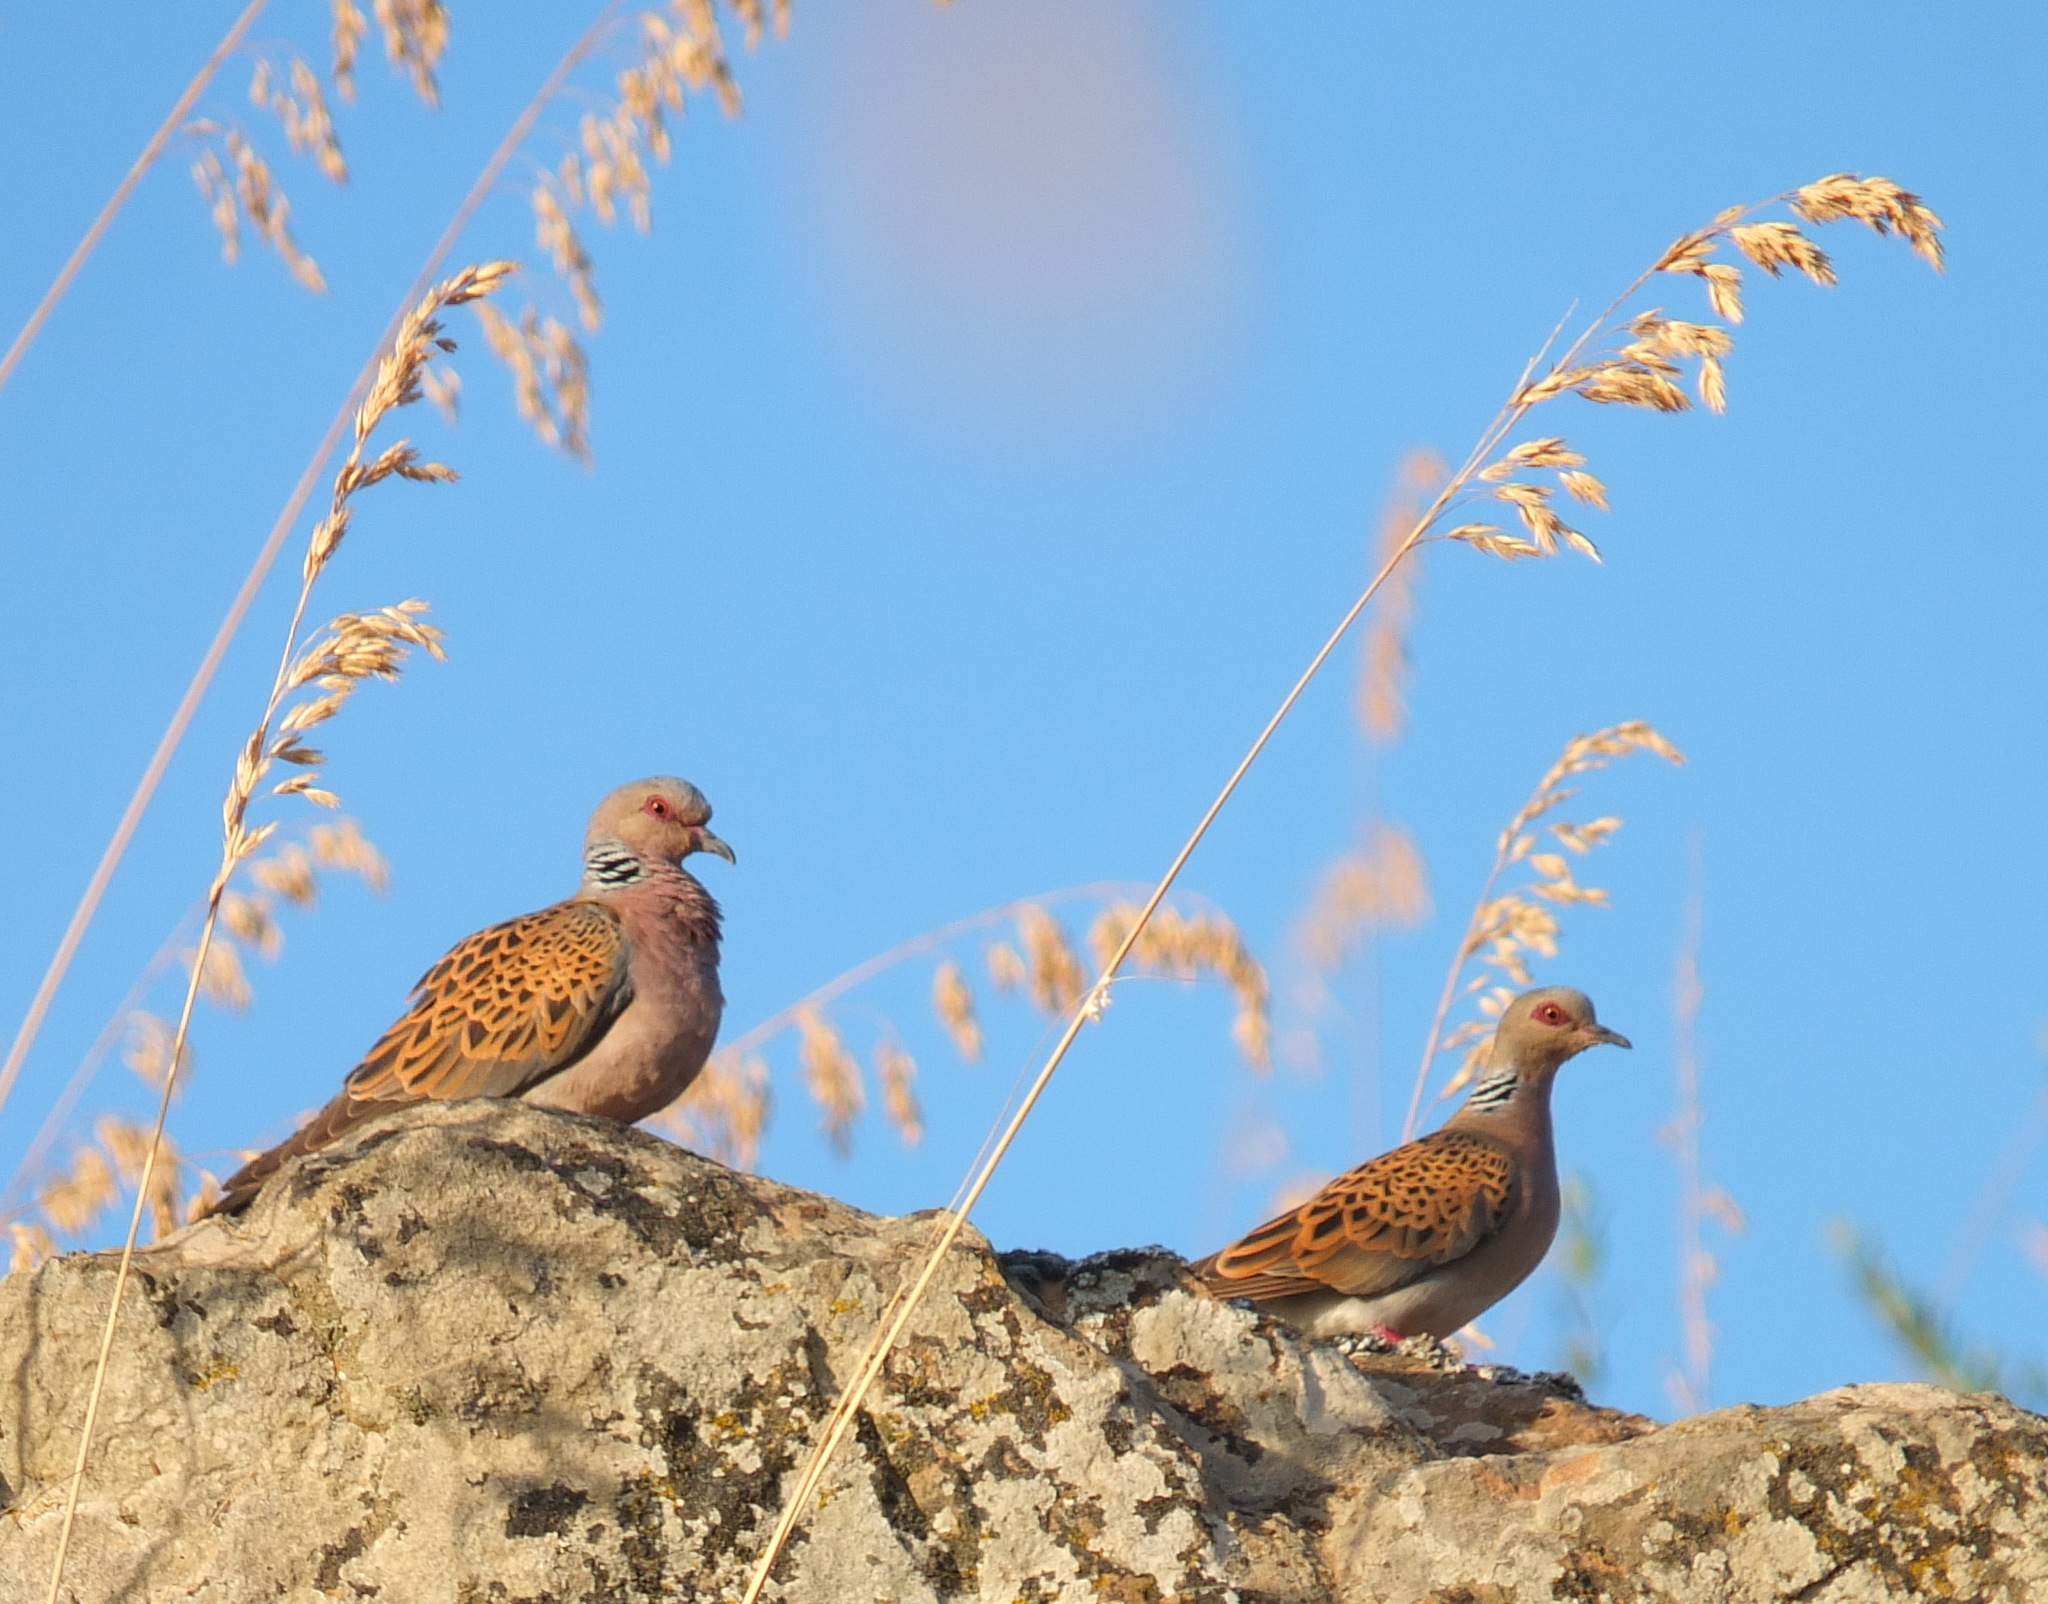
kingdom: Animalia
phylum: Chordata
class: Aves
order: Columbiformes
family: Columbidae
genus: Streptopelia
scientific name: Streptopelia turtur
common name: European turtle dove
